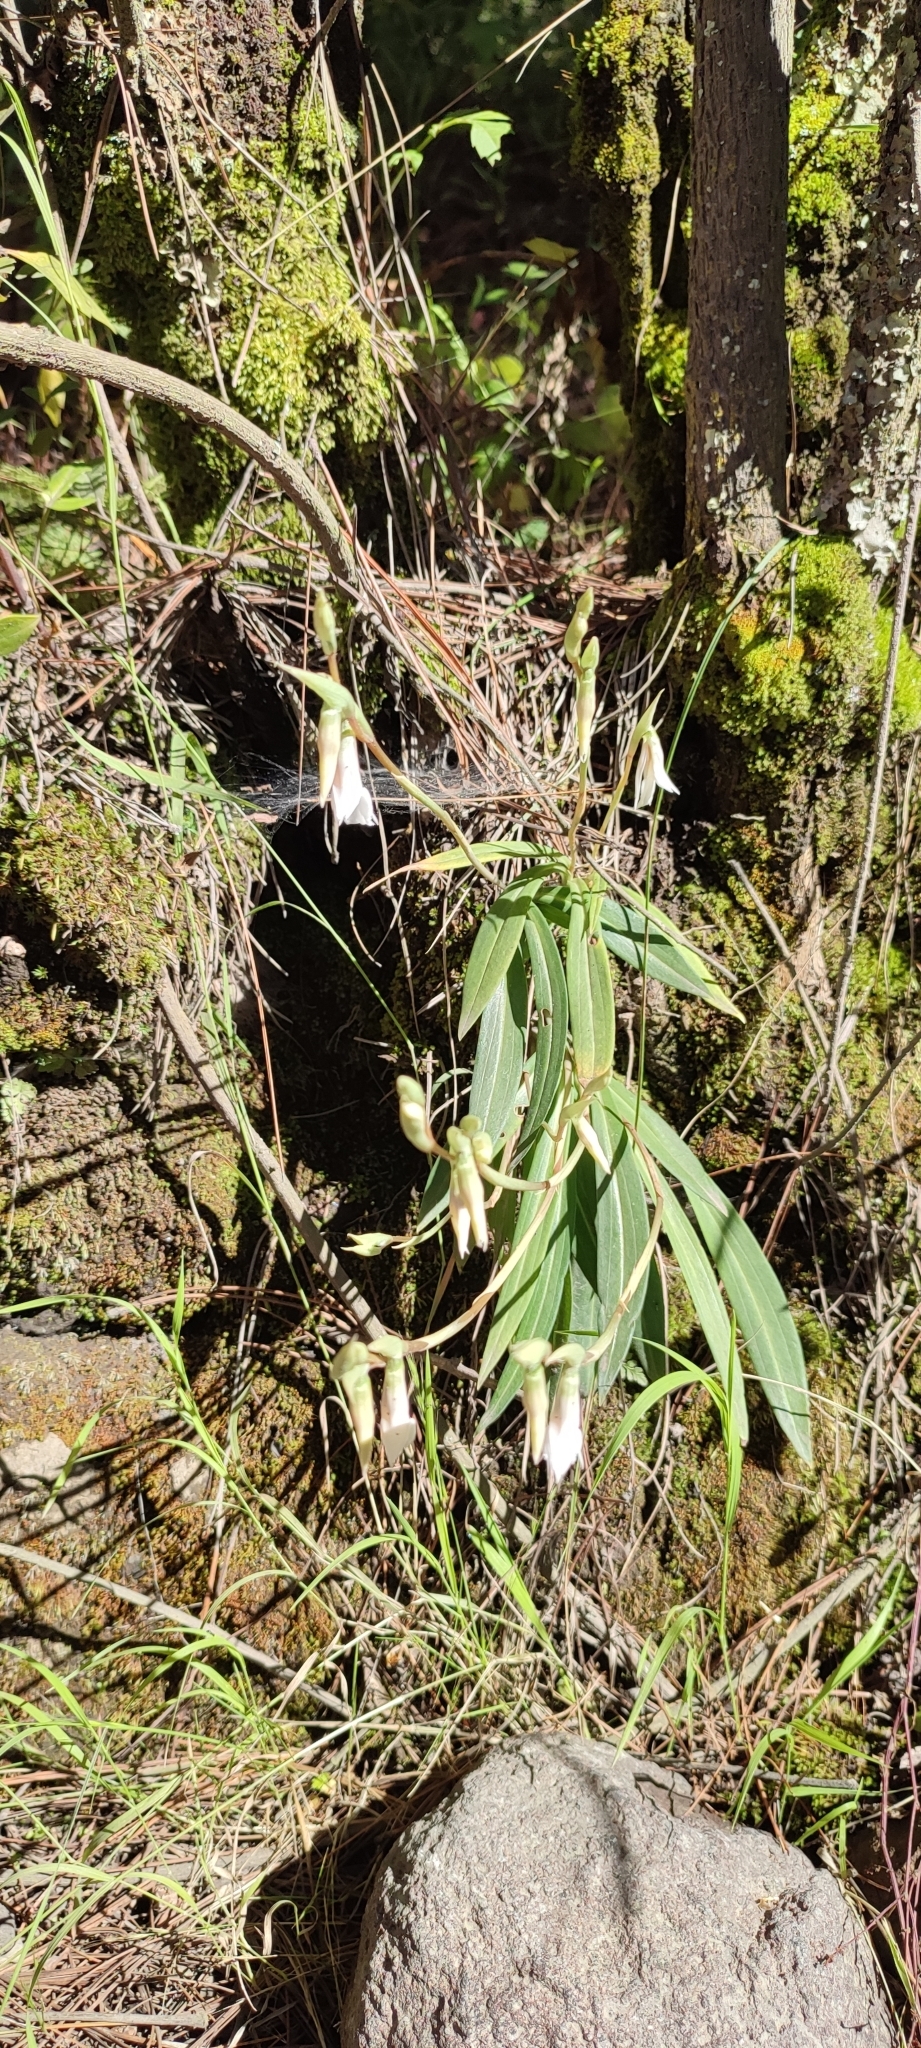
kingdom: Plantae
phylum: Tracheophyta
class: Liliopsida
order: Asparagales
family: Orchidaceae
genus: Funkiella
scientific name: Funkiella hyemalis
